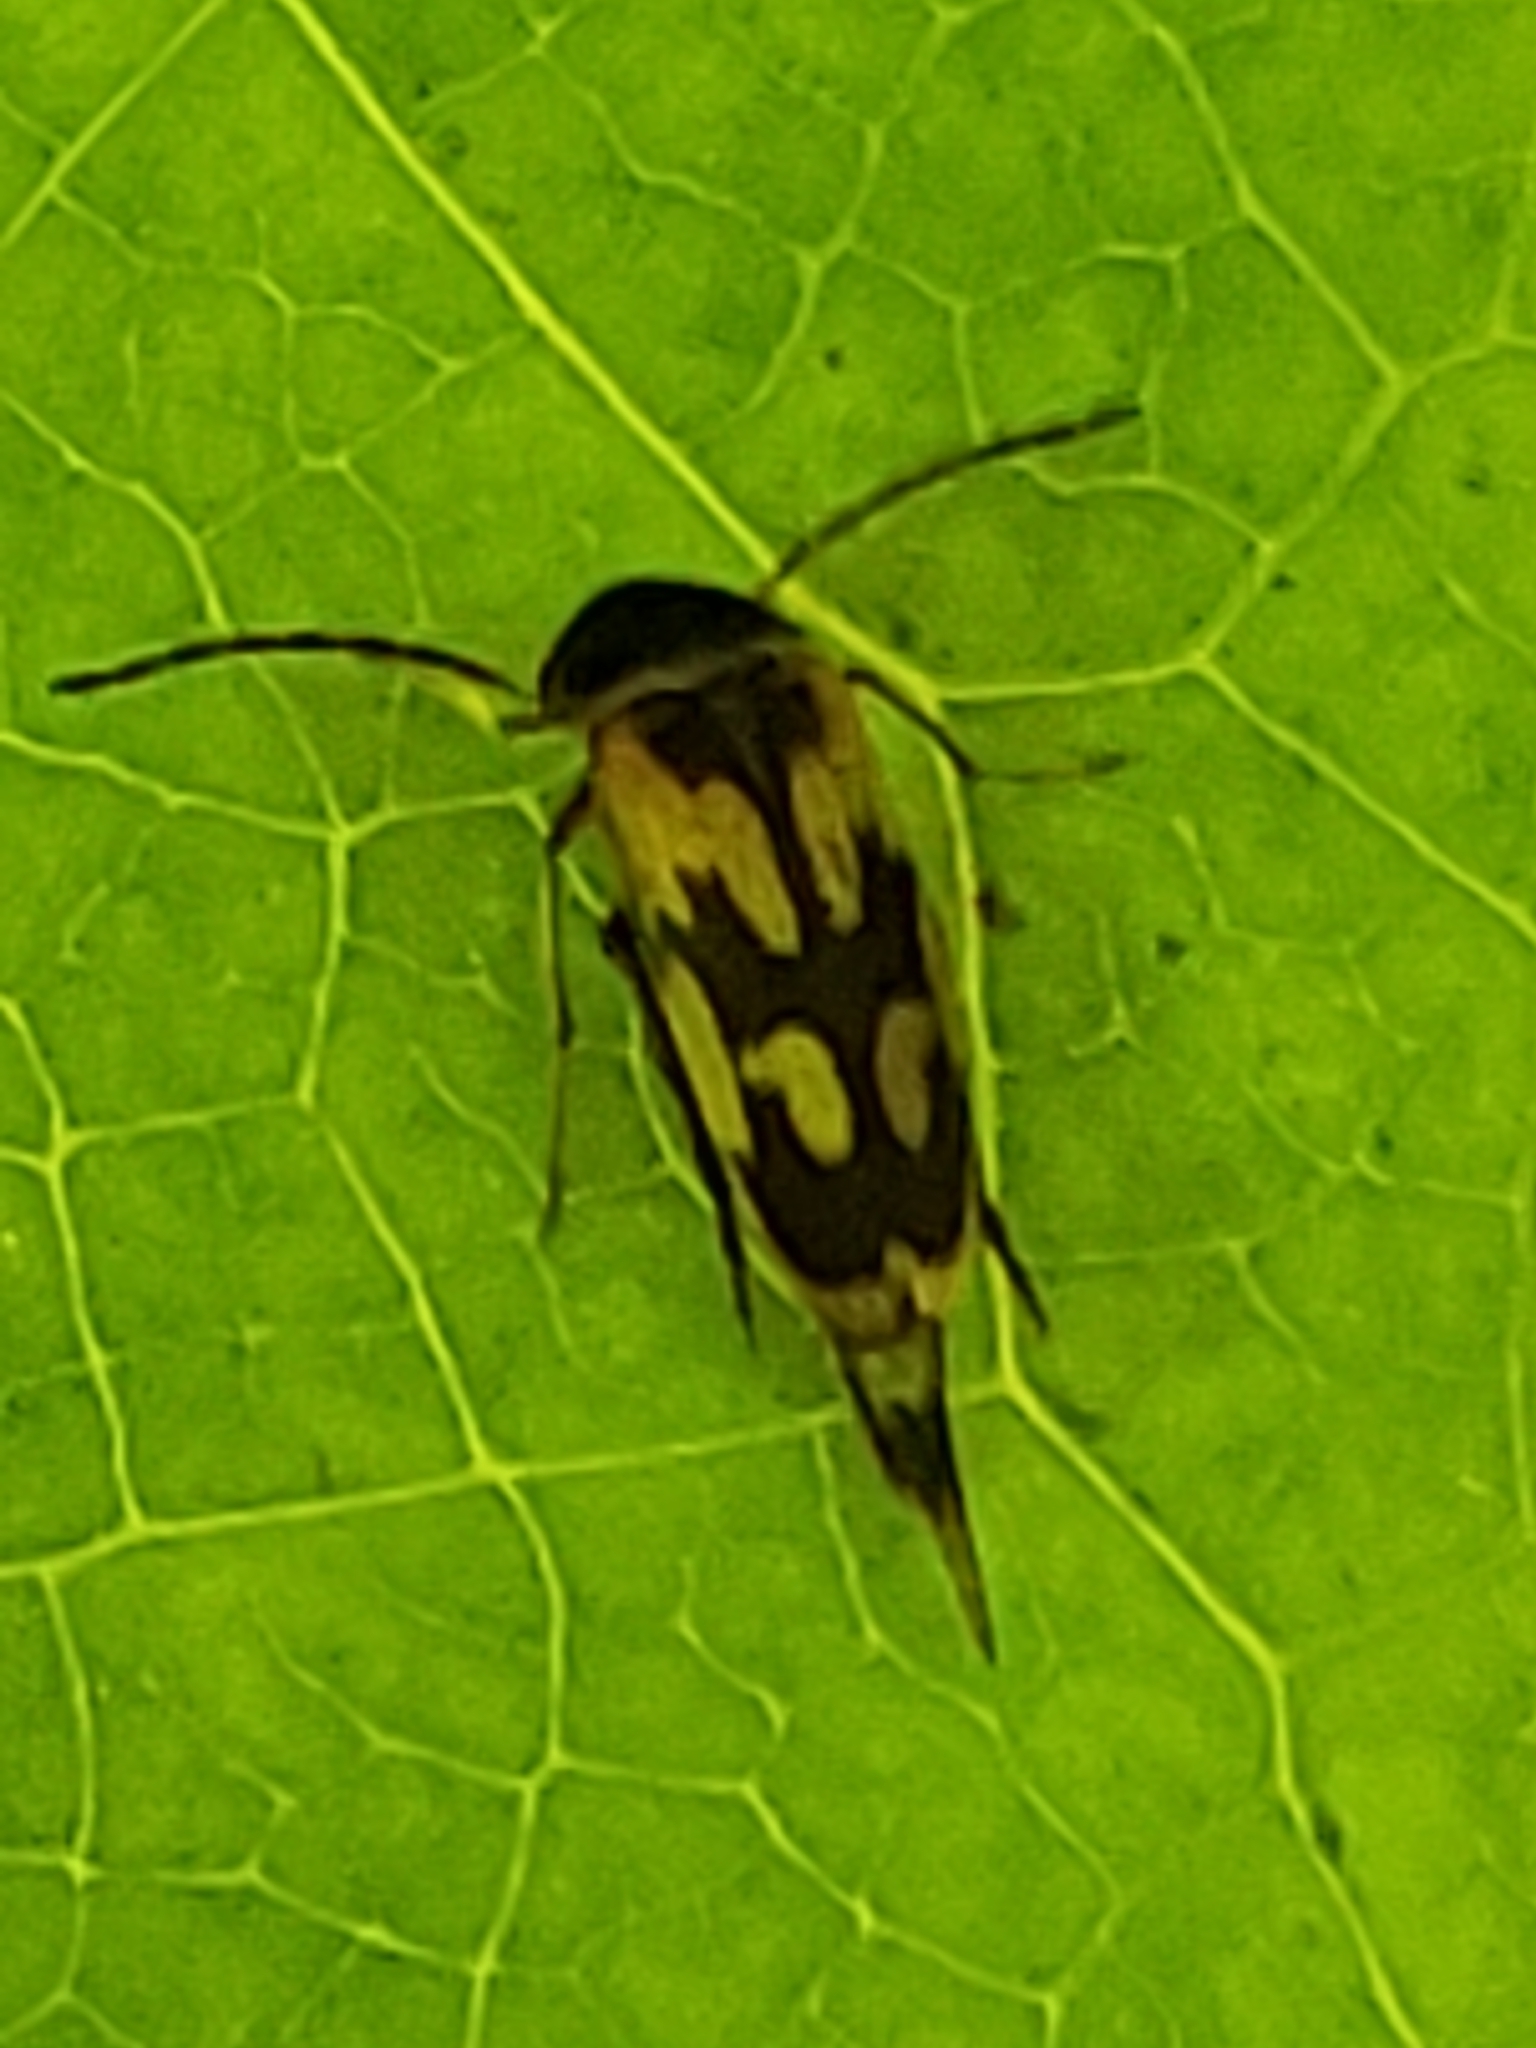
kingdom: Animalia
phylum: Arthropoda
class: Insecta
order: Coleoptera
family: Mordellidae
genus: Falsomordellistena
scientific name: Falsomordellistena bihamata
